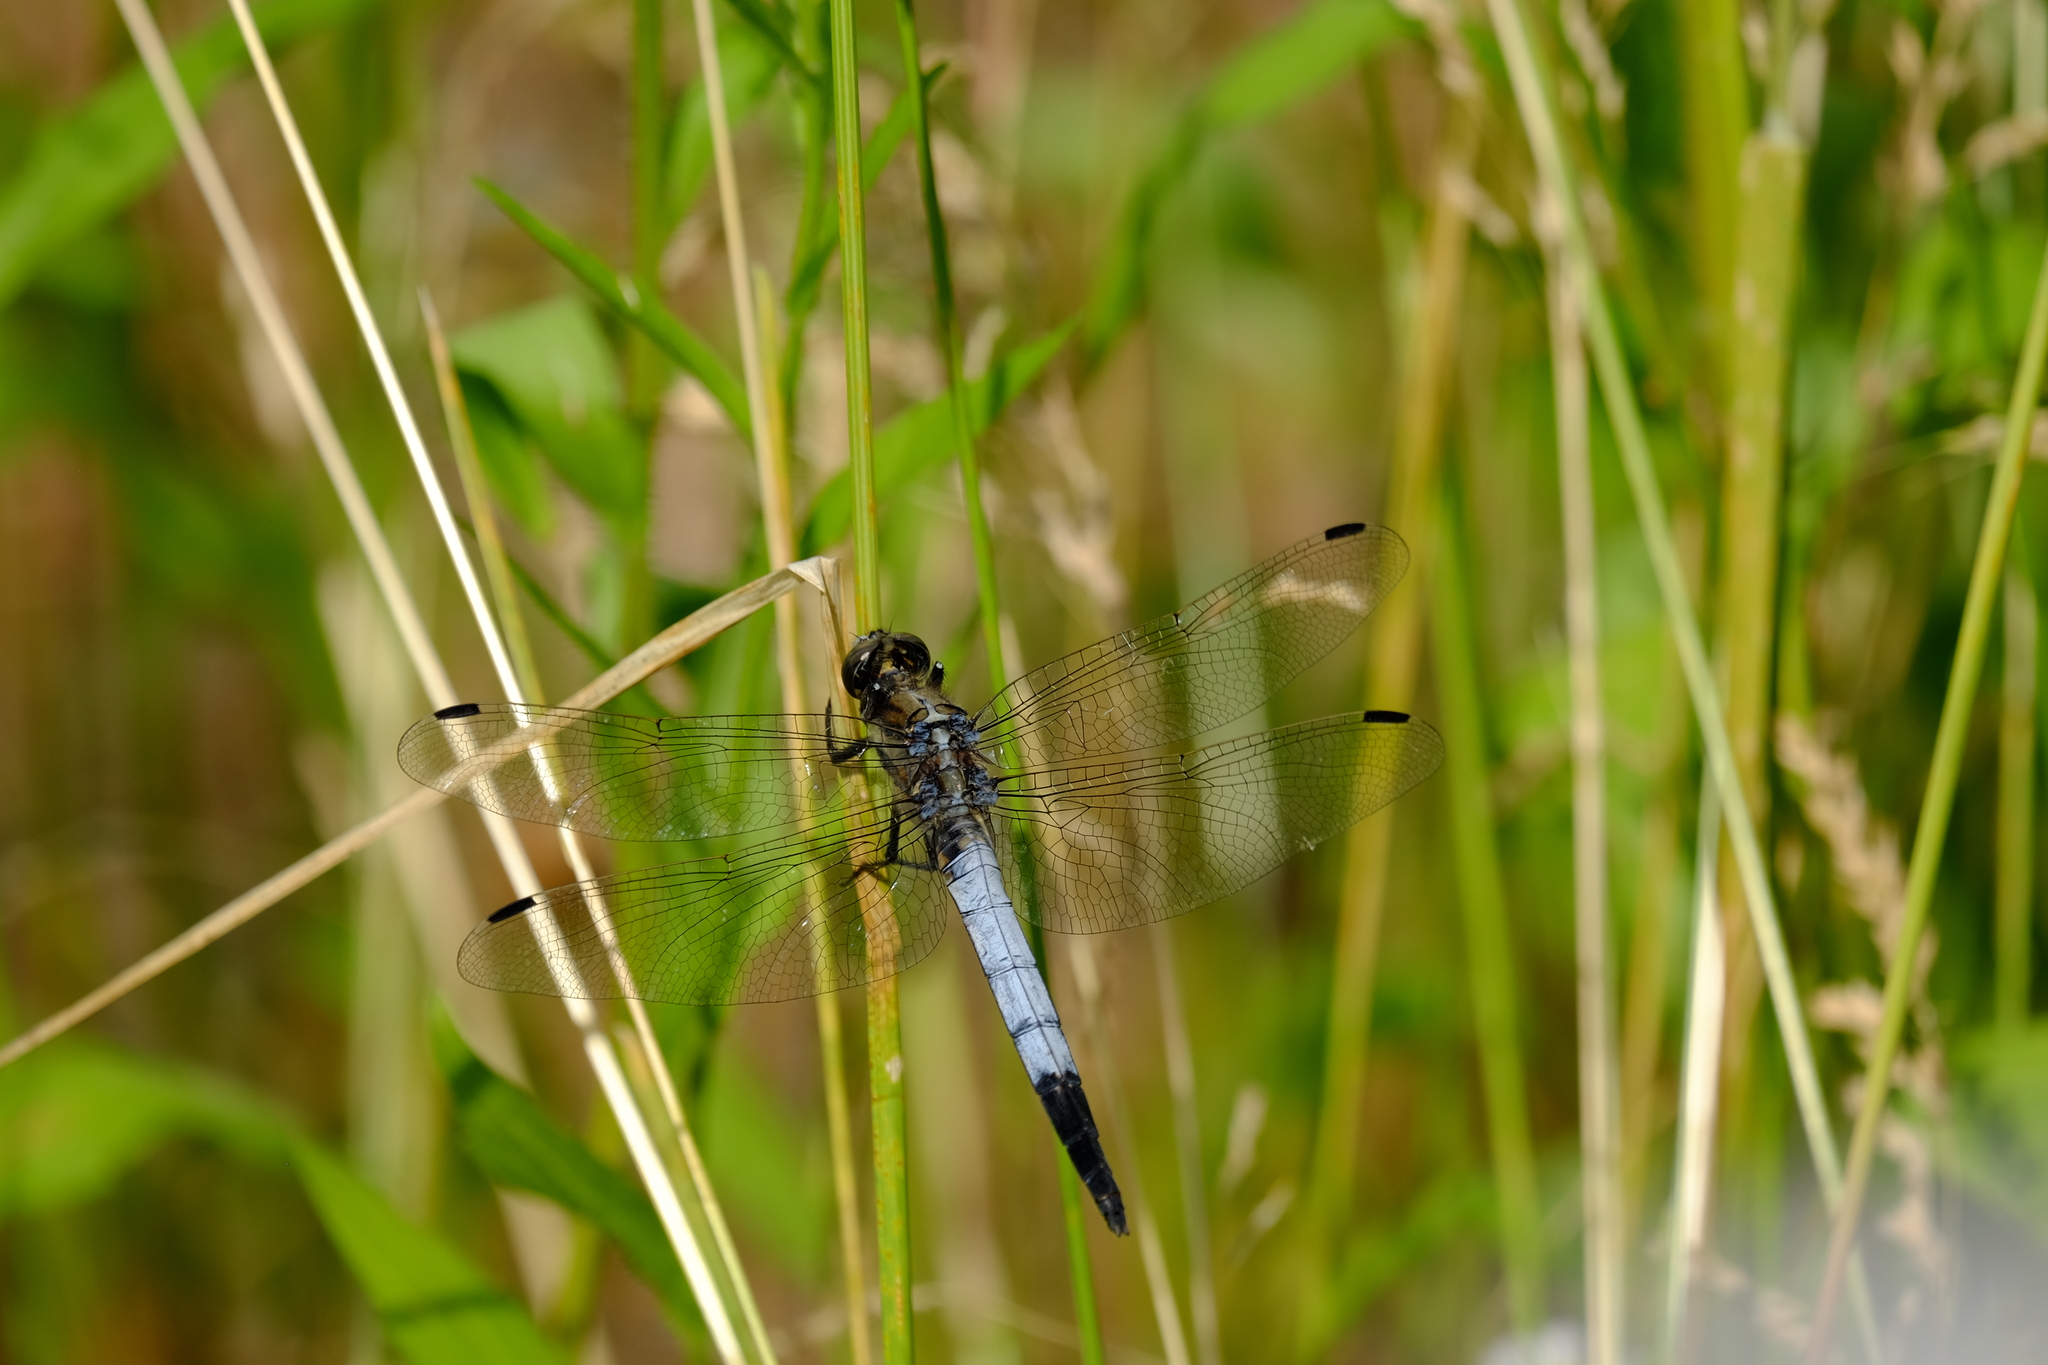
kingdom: Animalia
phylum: Arthropoda
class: Insecta
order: Odonata
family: Libellulidae
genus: Orthetrum
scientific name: Orthetrum albistylum
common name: White-tailed skimmer
